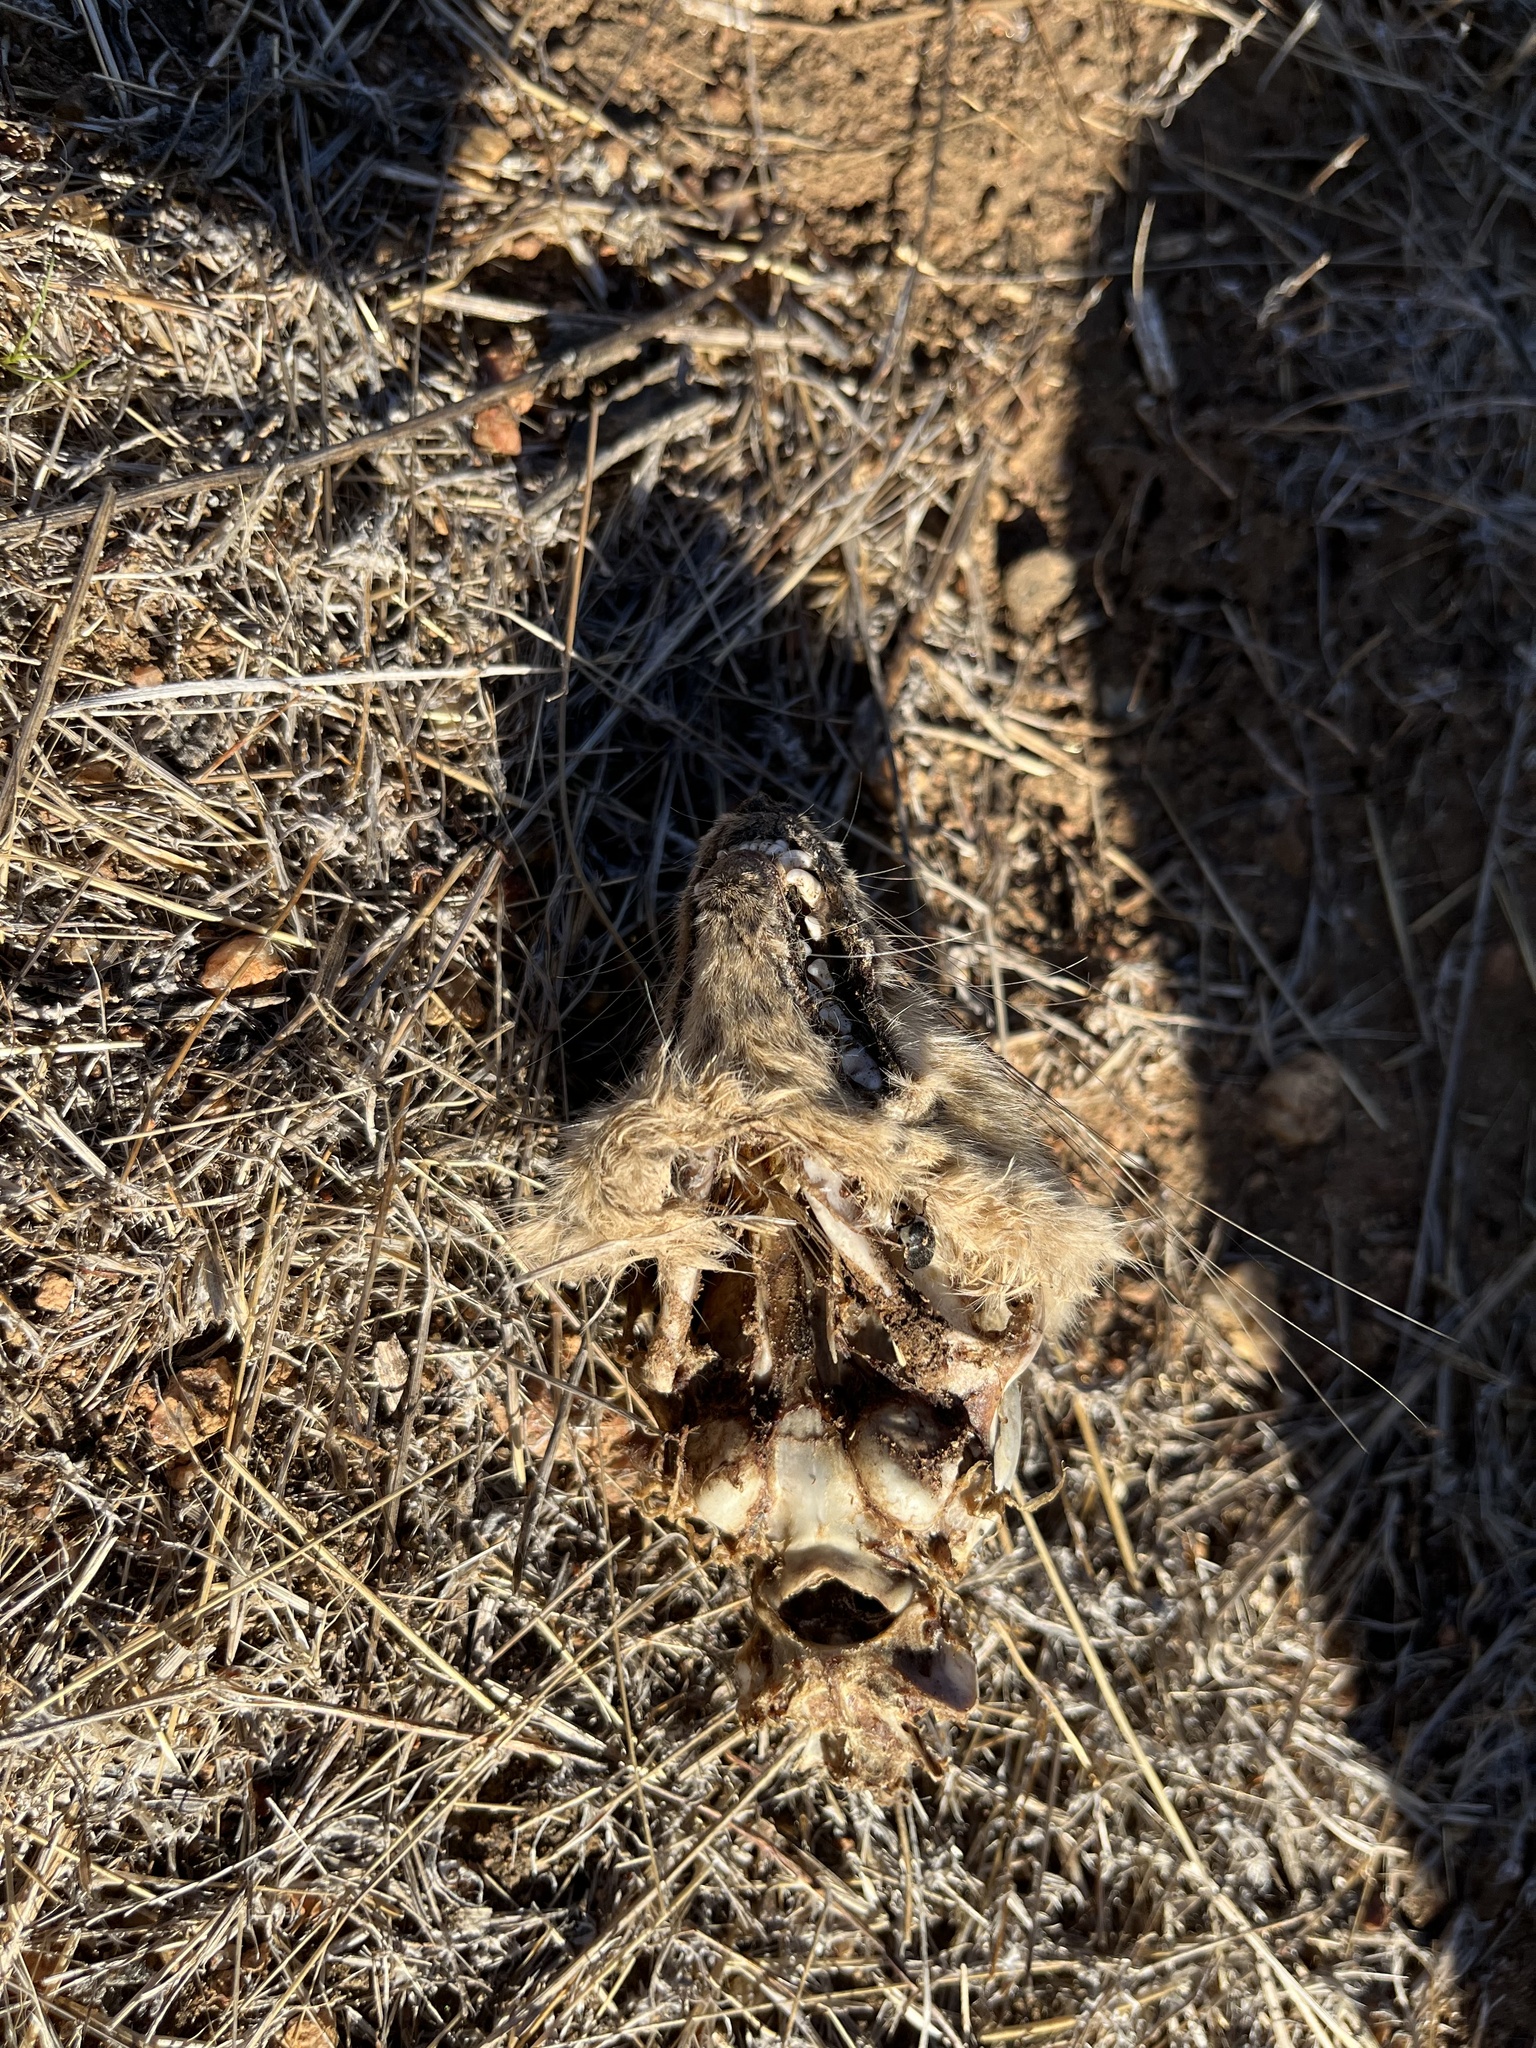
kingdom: Animalia
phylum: Chordata
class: Mammalia
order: Carnivora
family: Canidae
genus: Urocyon
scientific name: Urocyon cinereoargenteus
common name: Gray fox
